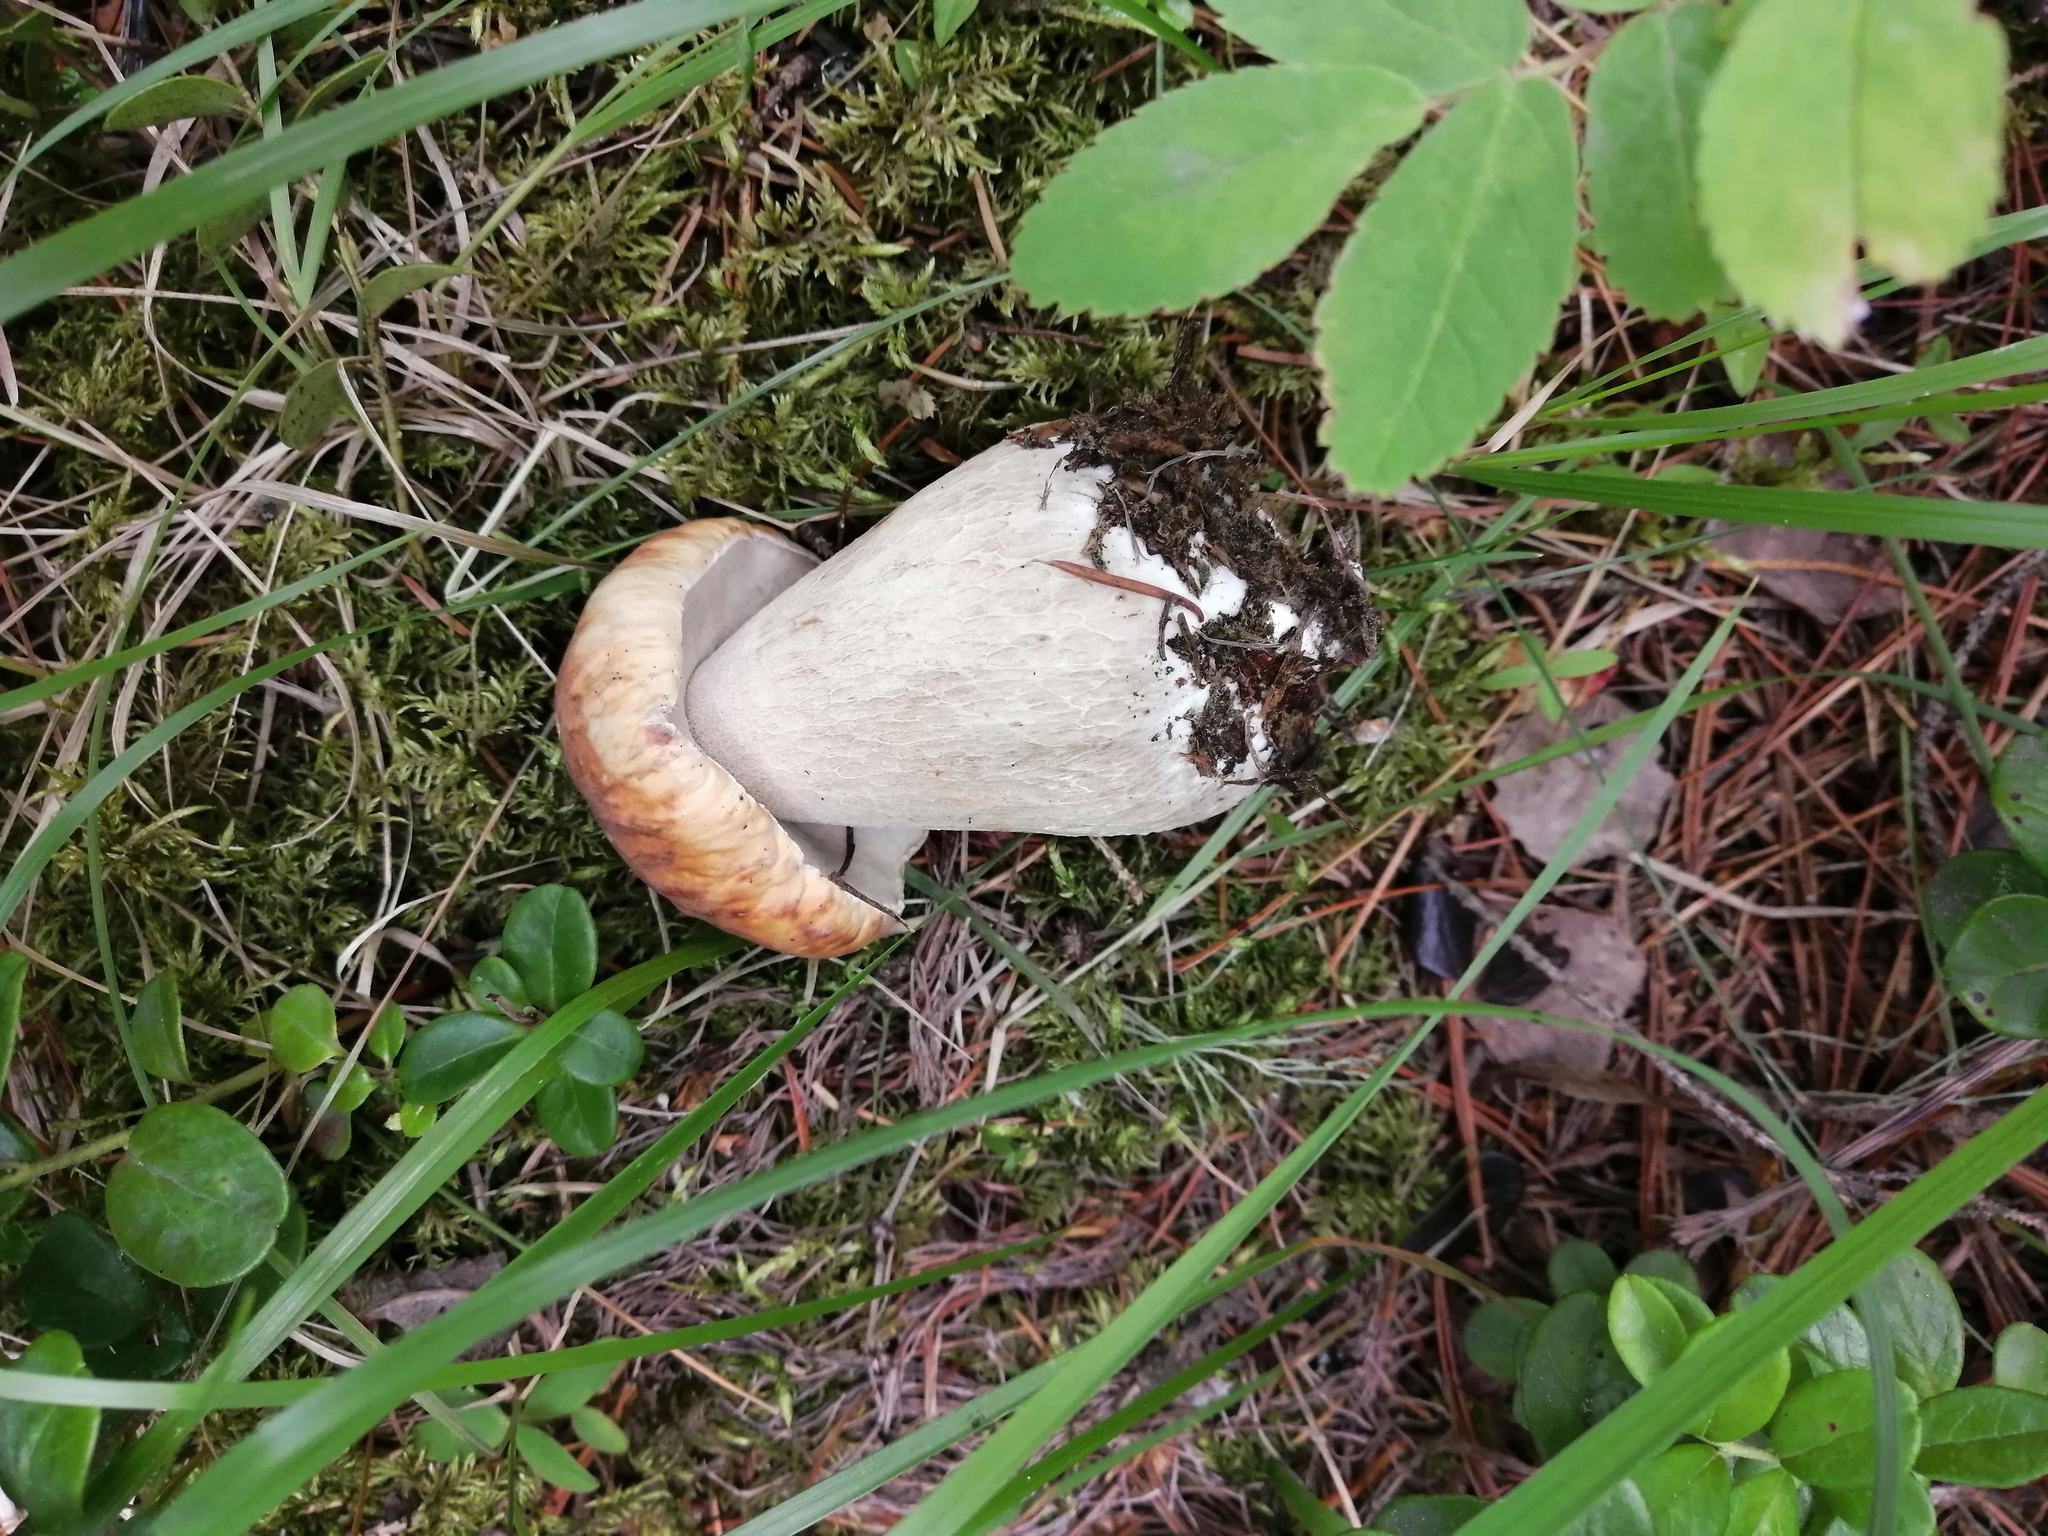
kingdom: Fungi
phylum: Basidiomycota
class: Agaricomycetes
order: Boletales
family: Boletaceae
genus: Boletus
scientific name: Boletus edulis
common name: Cep
